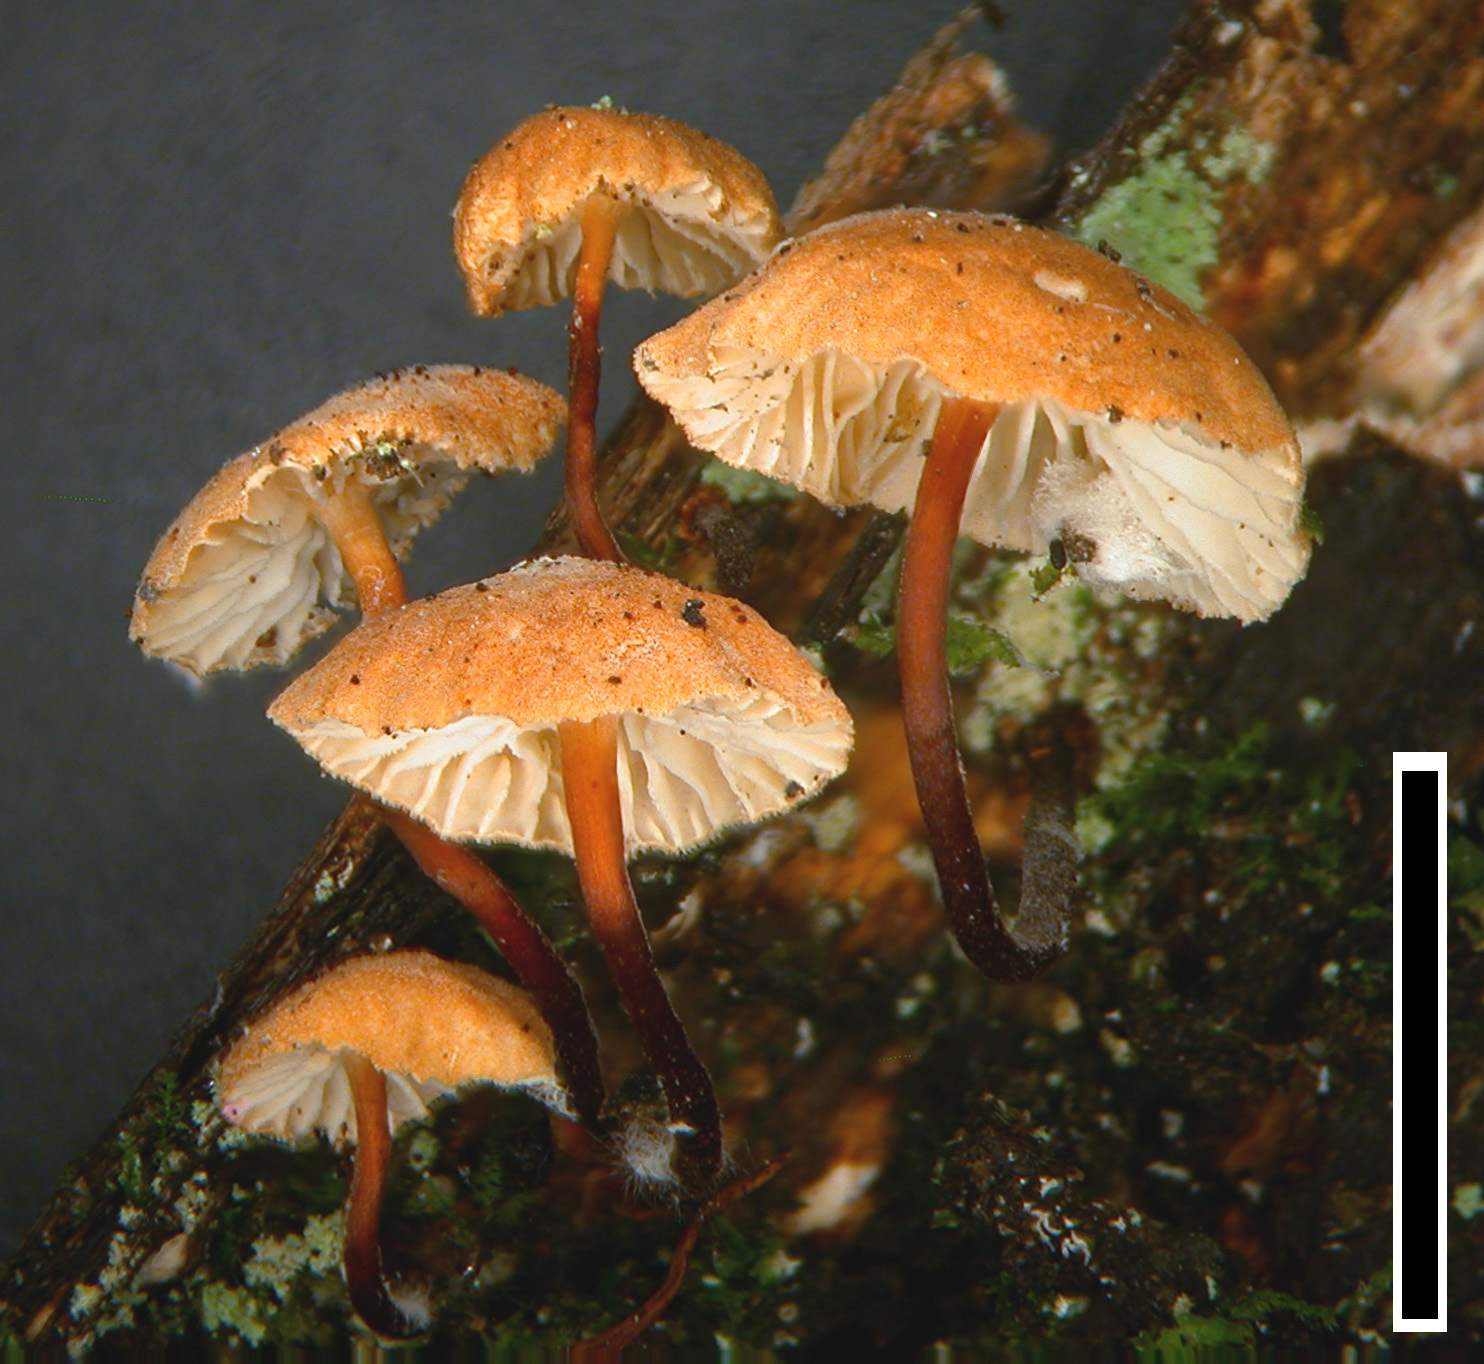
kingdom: Fungi
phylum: Basidiomycota
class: Agaricomycetes
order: Agaricales
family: Omphalotaceae
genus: Mycetinis
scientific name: Mycetinis curraniae
